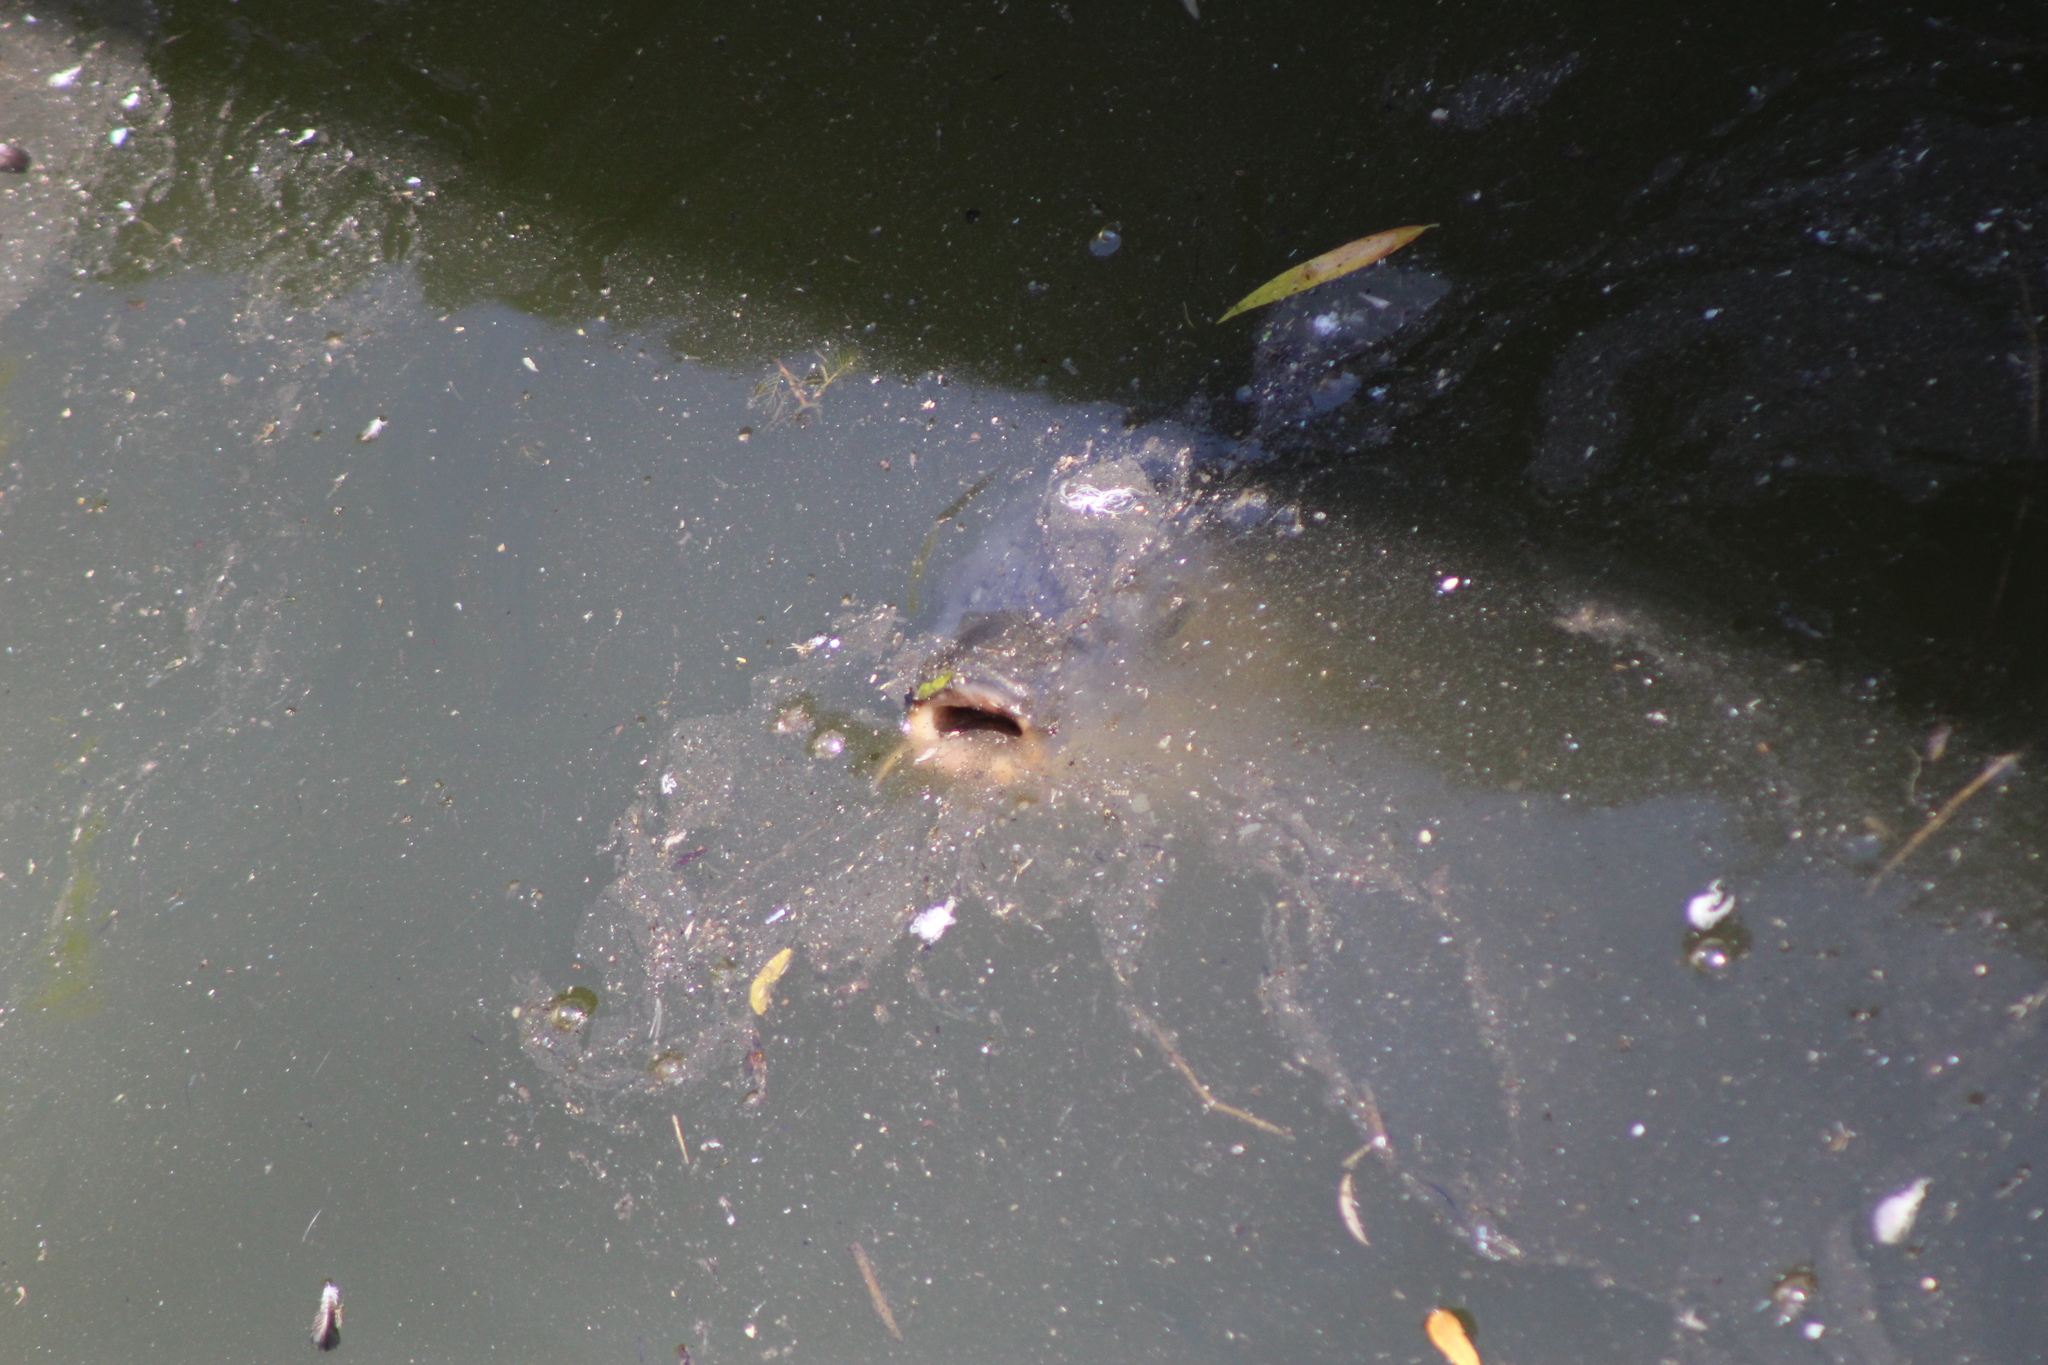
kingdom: Animalia
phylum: Chordata
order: Cypriniformes
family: Cyprinidae
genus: Cyprinus
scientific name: Cyprinus carpio
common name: Common carp
